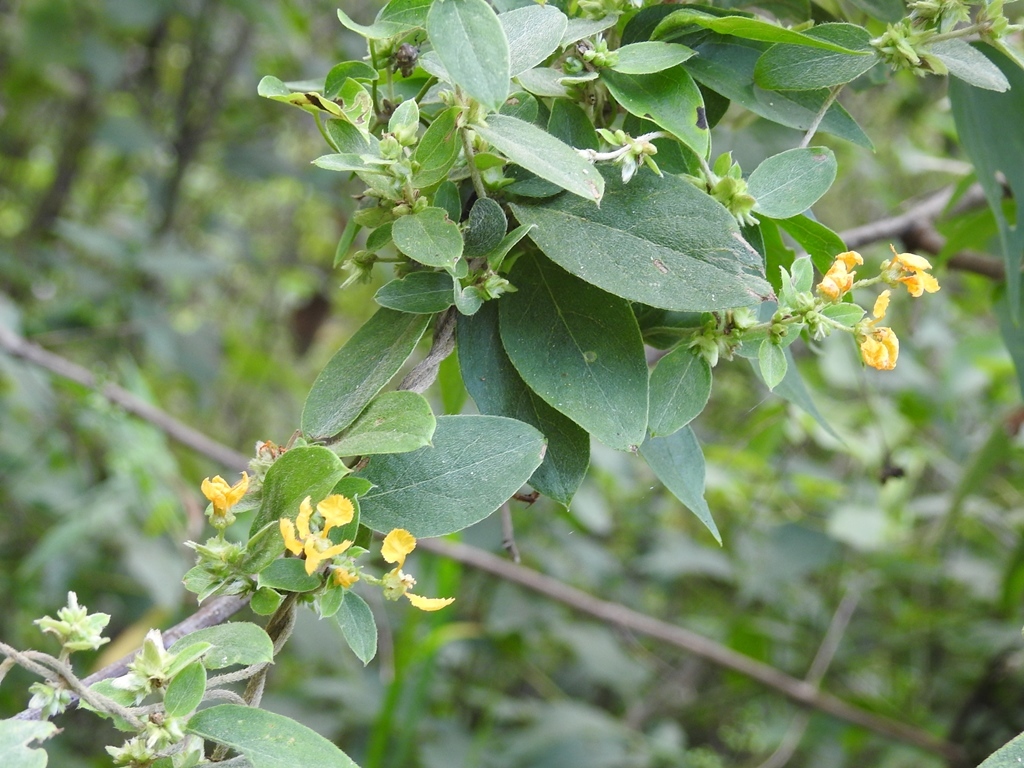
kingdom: Plantae
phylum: Tracheophyta
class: Magnoliopsida
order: Malpighiales
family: Malpighiaceae
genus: Gaudichaudia
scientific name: Gaudichaudia cynanchoides
